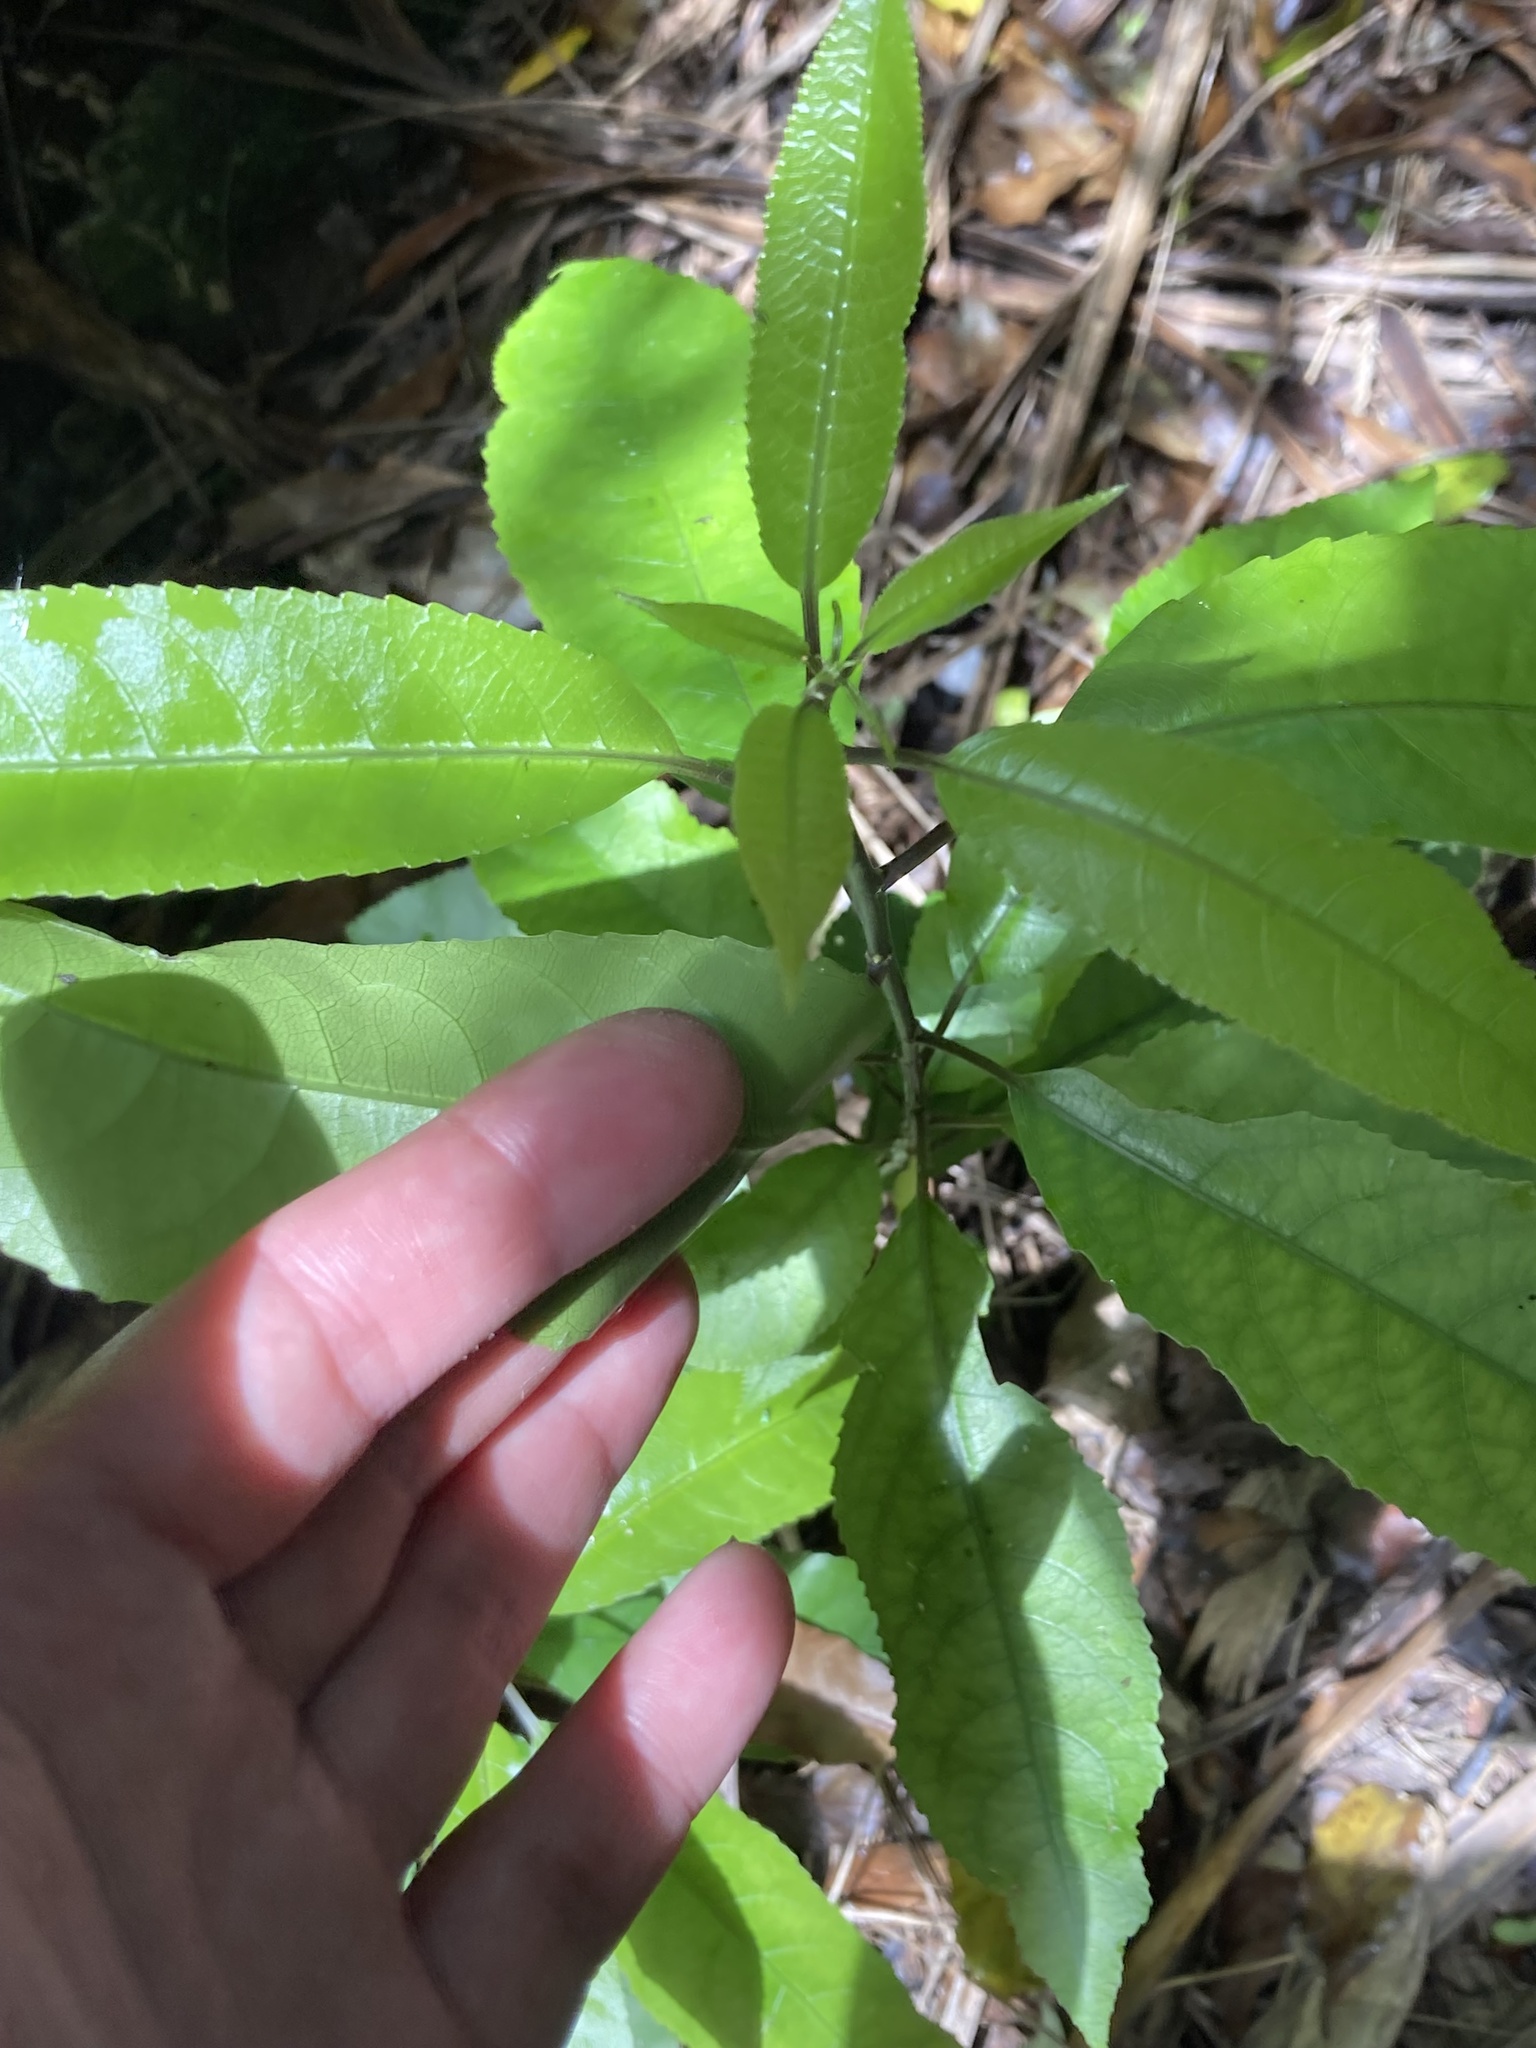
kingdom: Plantae
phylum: Tracheophyta
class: Magnoliopsida
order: Malpighiales
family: Violaceae
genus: Melicytus
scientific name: Melicytus ramiflorus
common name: Mahoe
